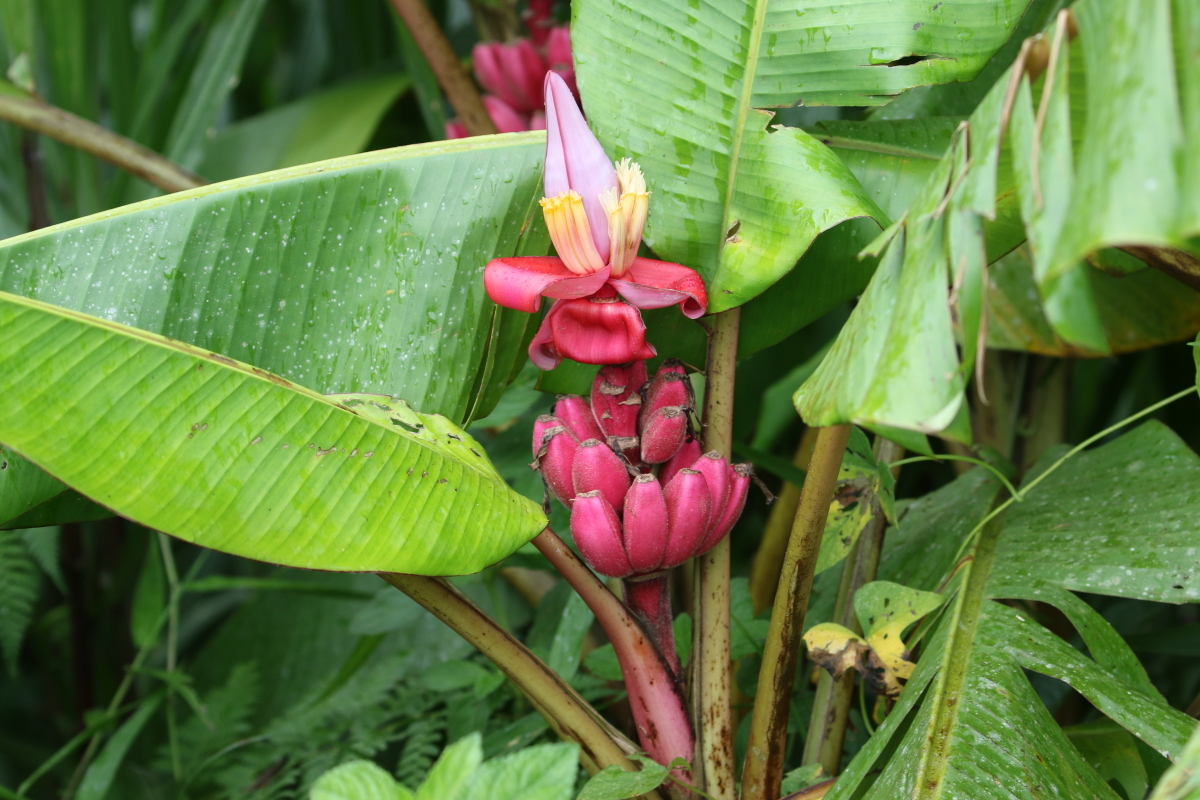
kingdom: Plantae
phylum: Tracheophyta
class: Liliopsida
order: Zingiberales
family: Musaceae
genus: Musa
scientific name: Musa velutina
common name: Pink velvet banana
